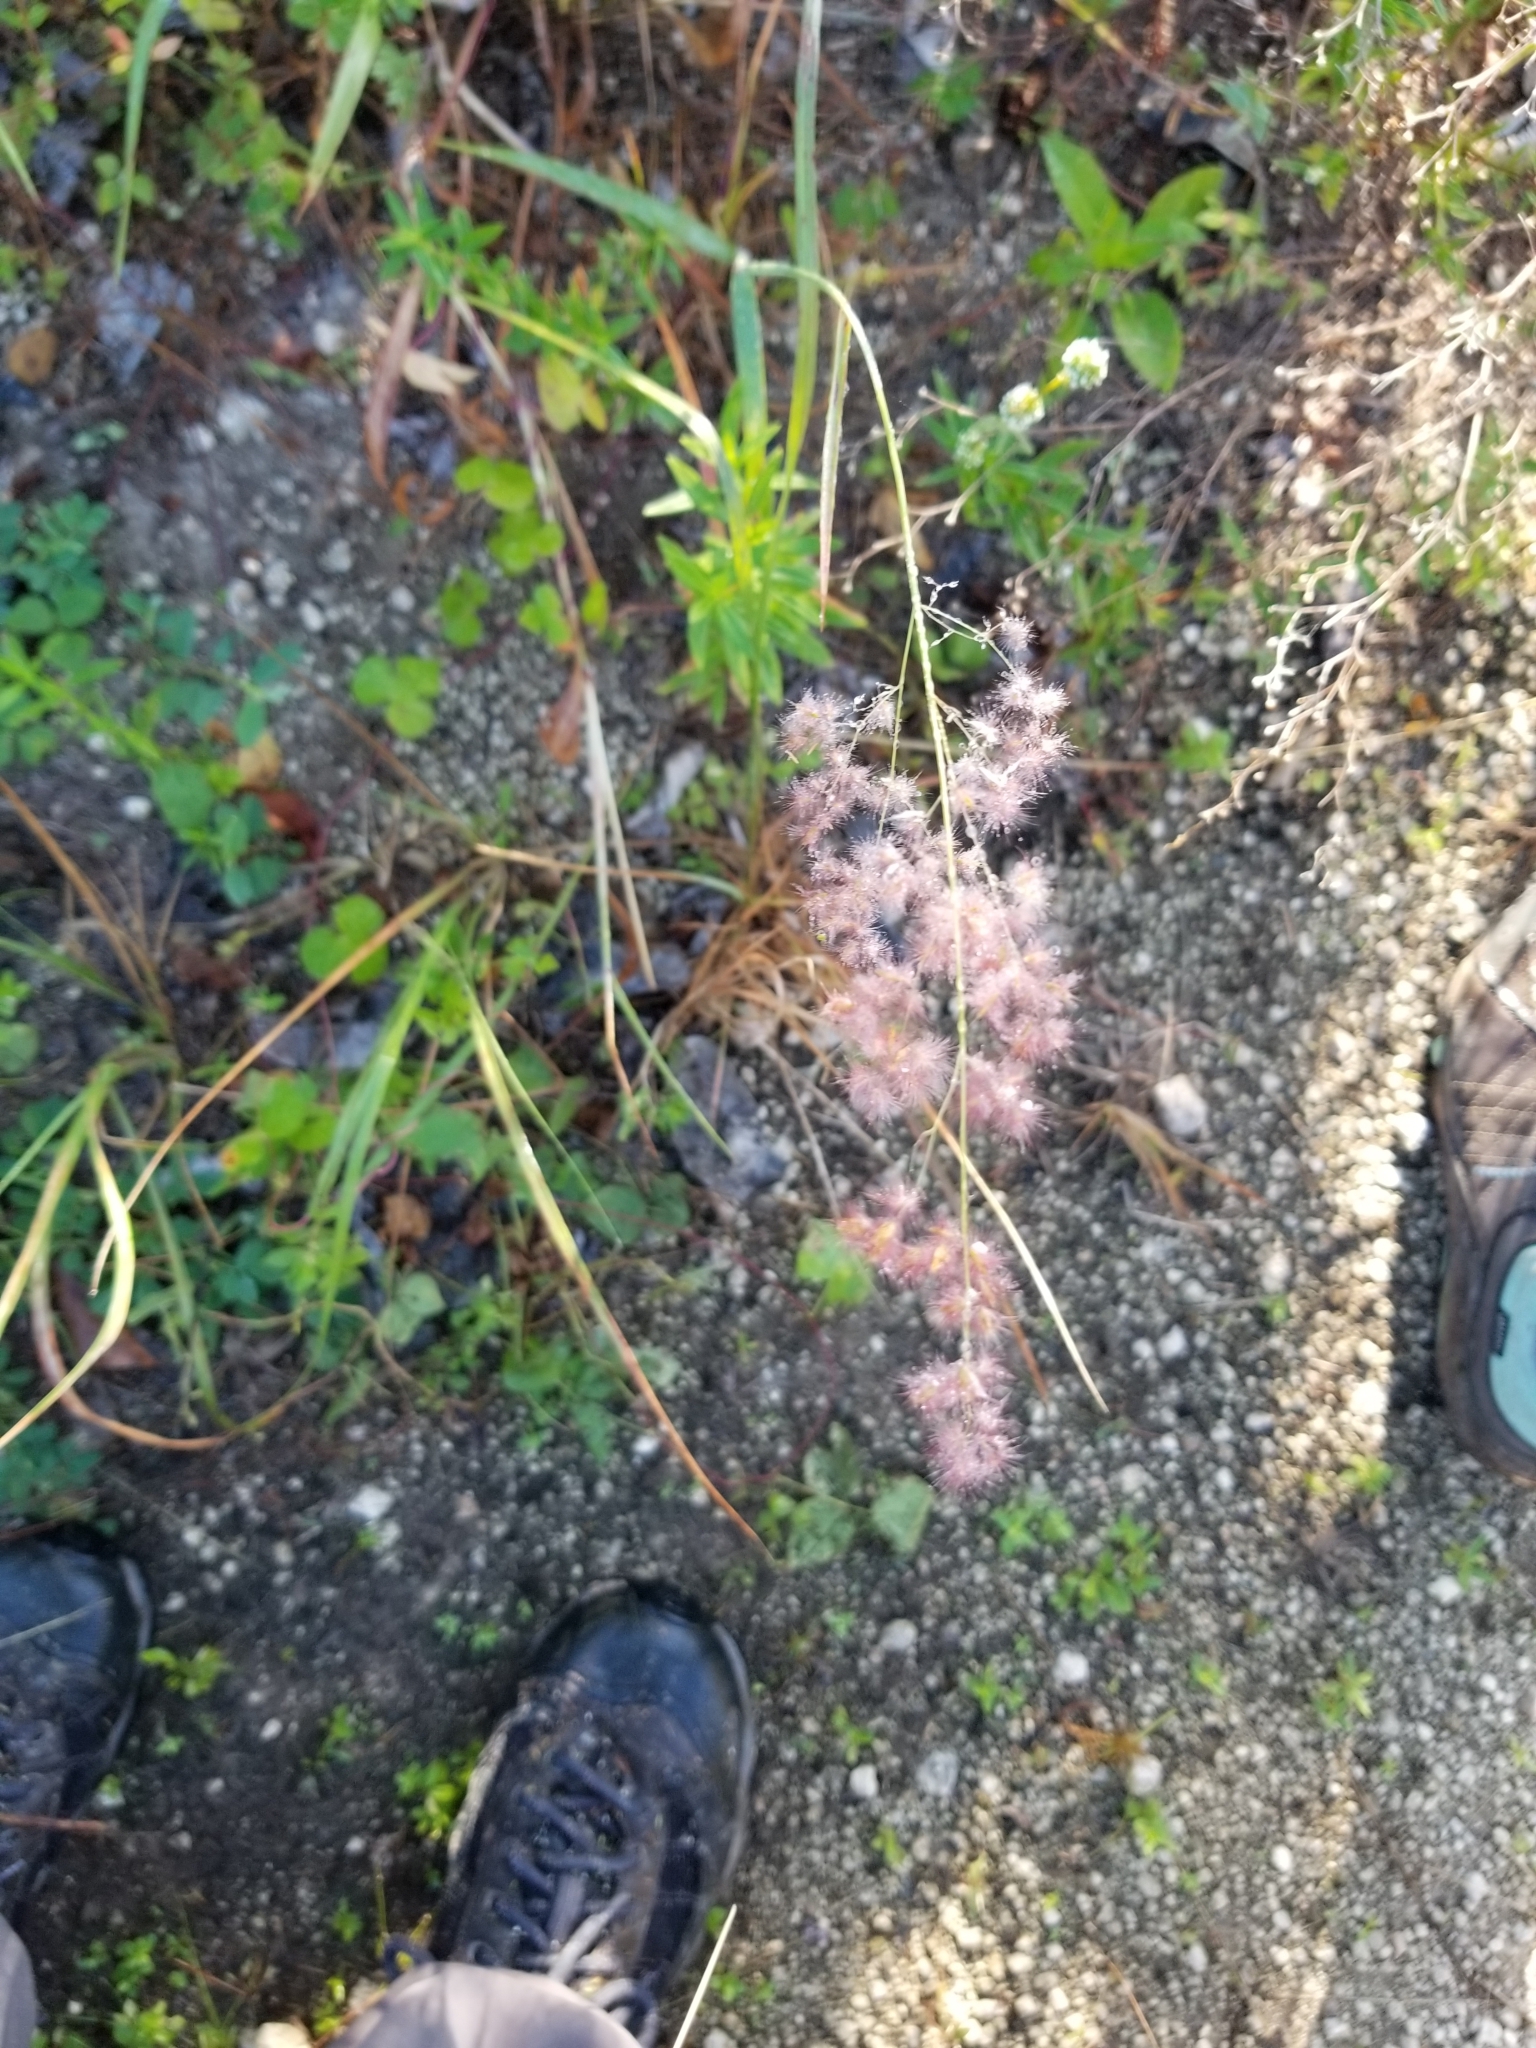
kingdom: Plantae
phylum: Tracheophyta
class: Liliopsida
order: Poales
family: Poaceae
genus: Melinis
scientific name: Melinis repens
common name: Rose natal grass
